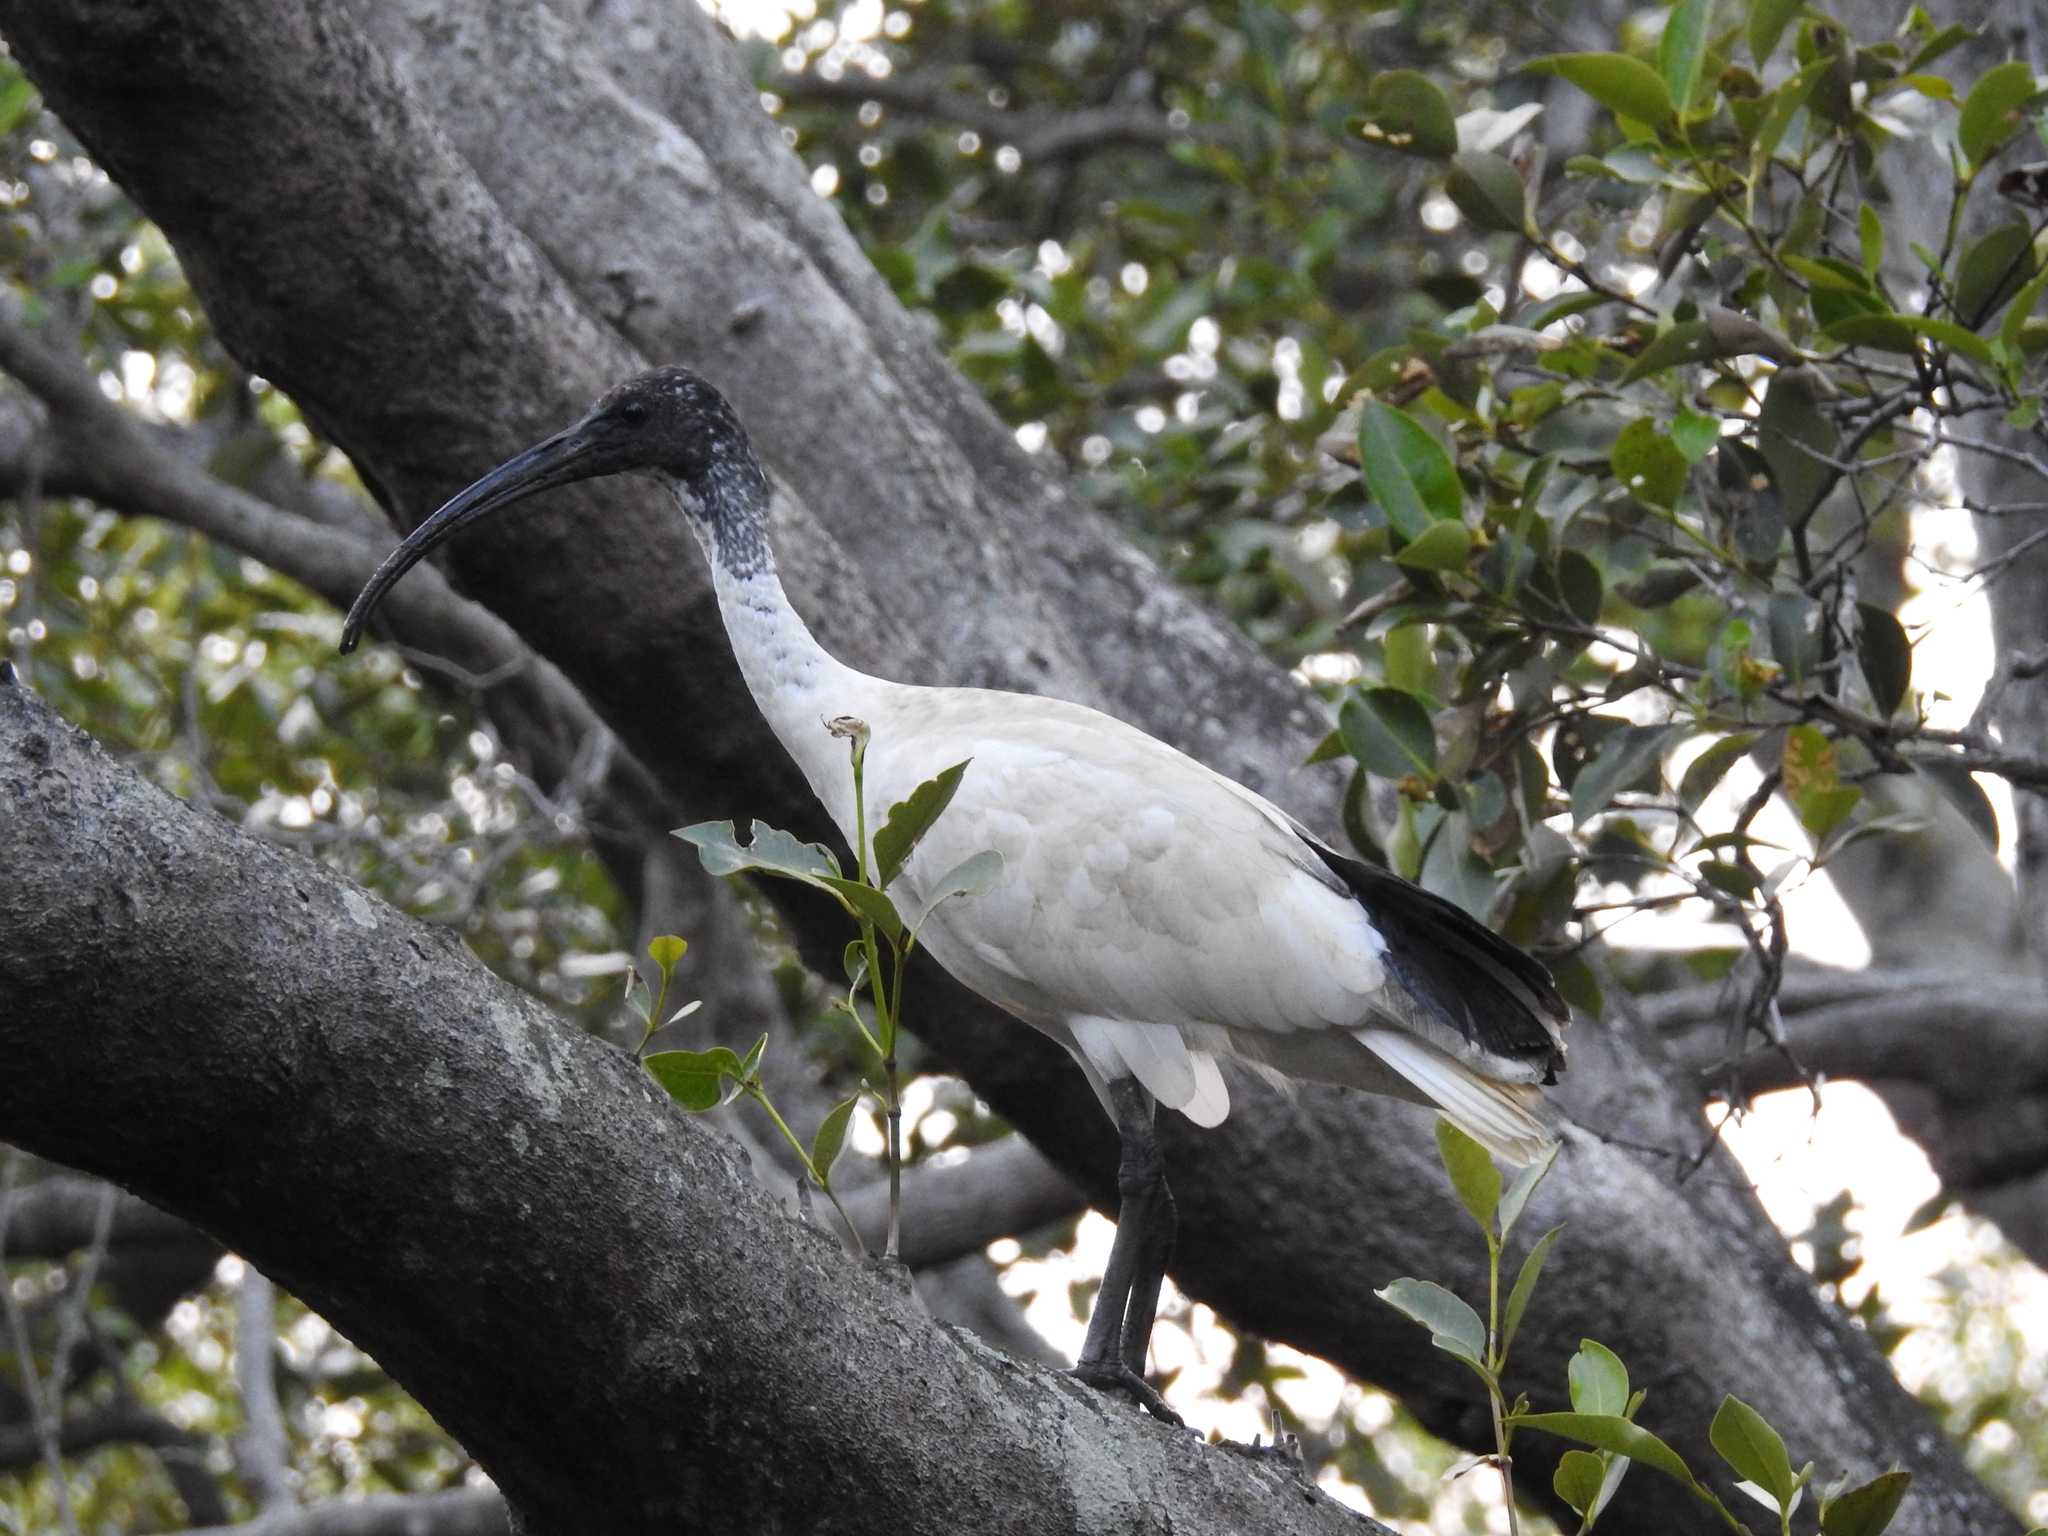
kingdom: Animalia
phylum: Chordata
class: Aves
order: Pelecaniformes
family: Threskiornithidae
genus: Threskiornis
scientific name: Threskiornis molucca
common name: Australian white ibis
